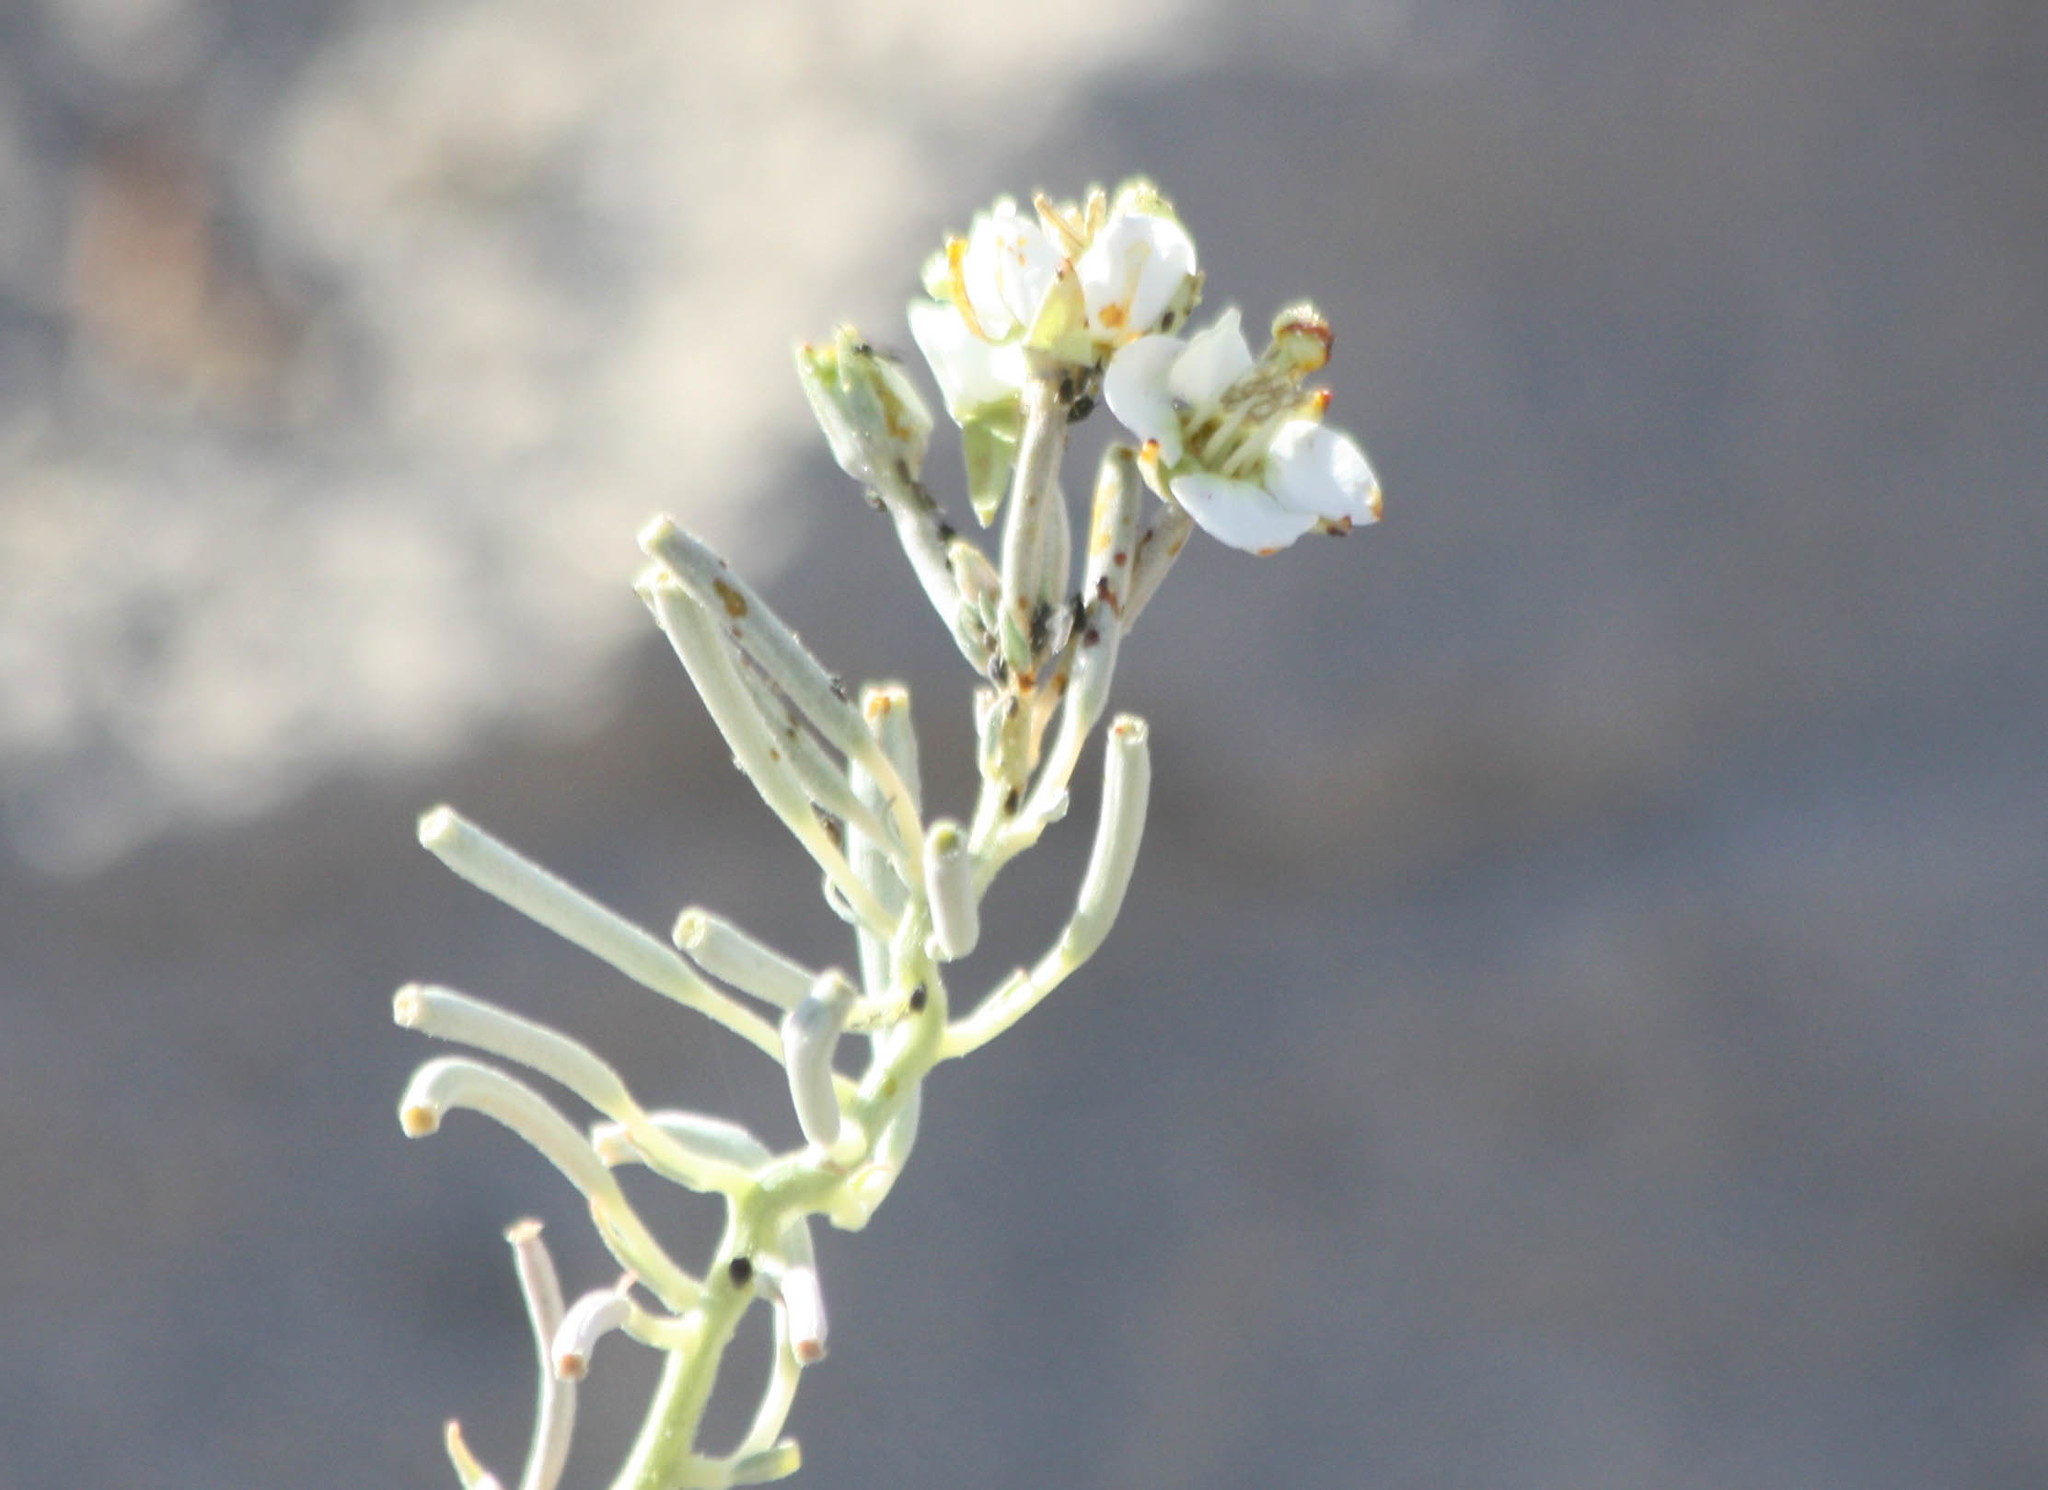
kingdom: Plantae
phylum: Tracheophyta
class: Magnoliopsida
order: Myrtales
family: Onagraceae
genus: Chylismia
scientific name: Chylismia claviformis
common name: Browneyes
